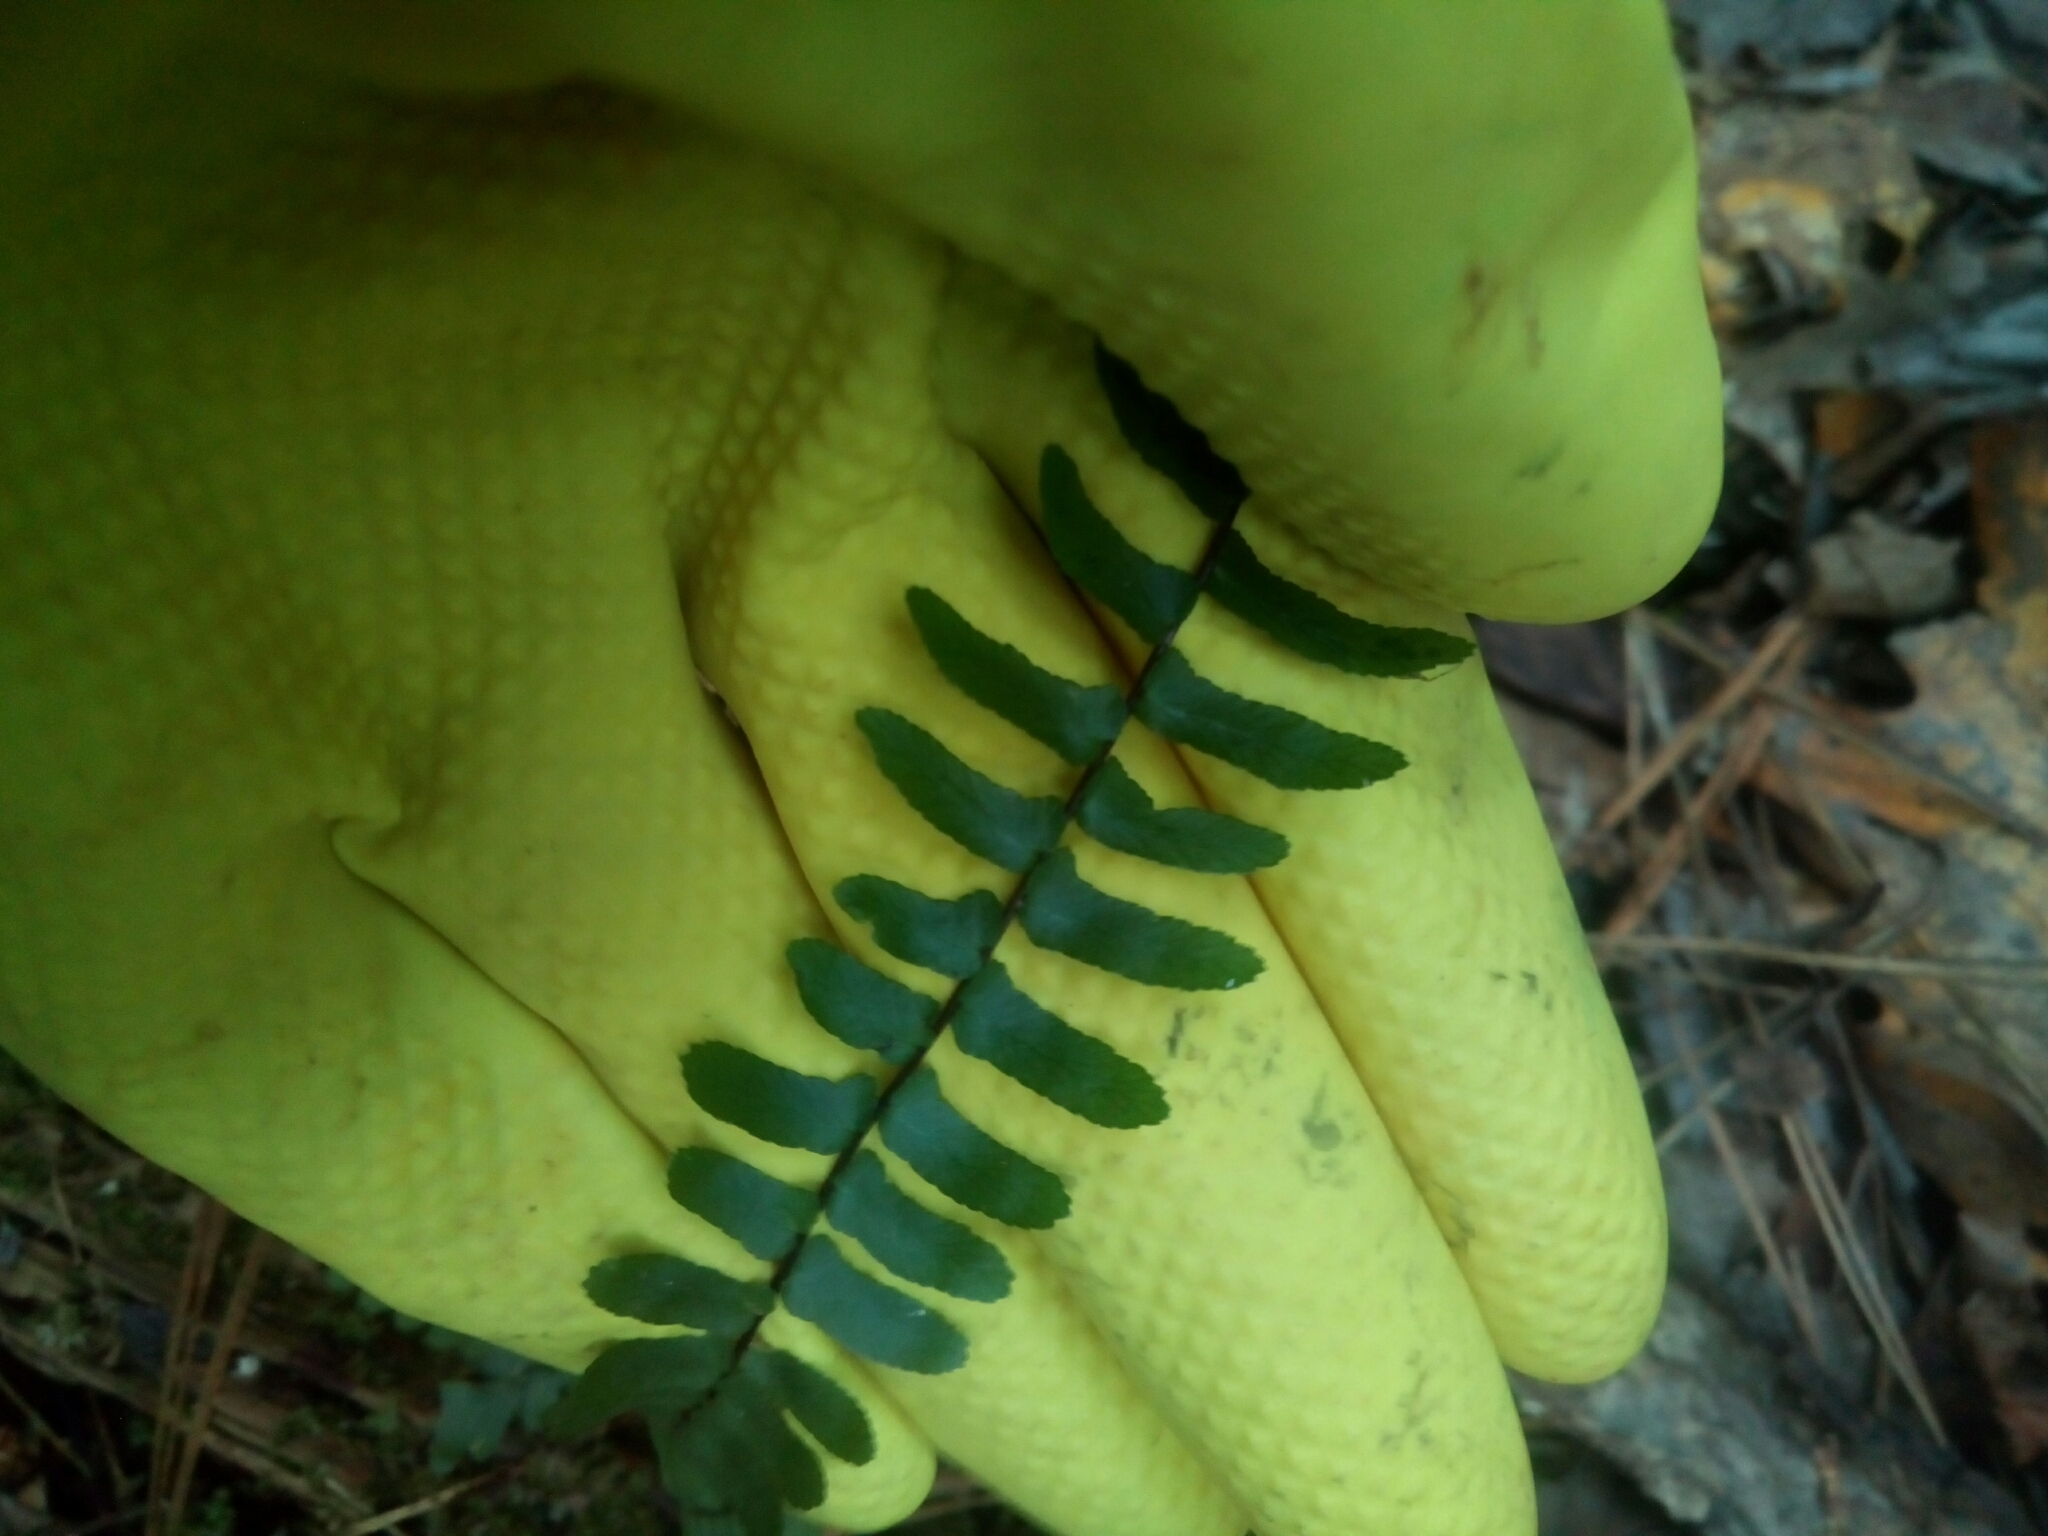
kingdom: Plantae
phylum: Tracheophyta
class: Polypodiopsida
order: Polypodiales
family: Aspleniaceae
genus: Asplenium
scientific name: Asplenium platyneuron
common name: Ebony spleenwort
